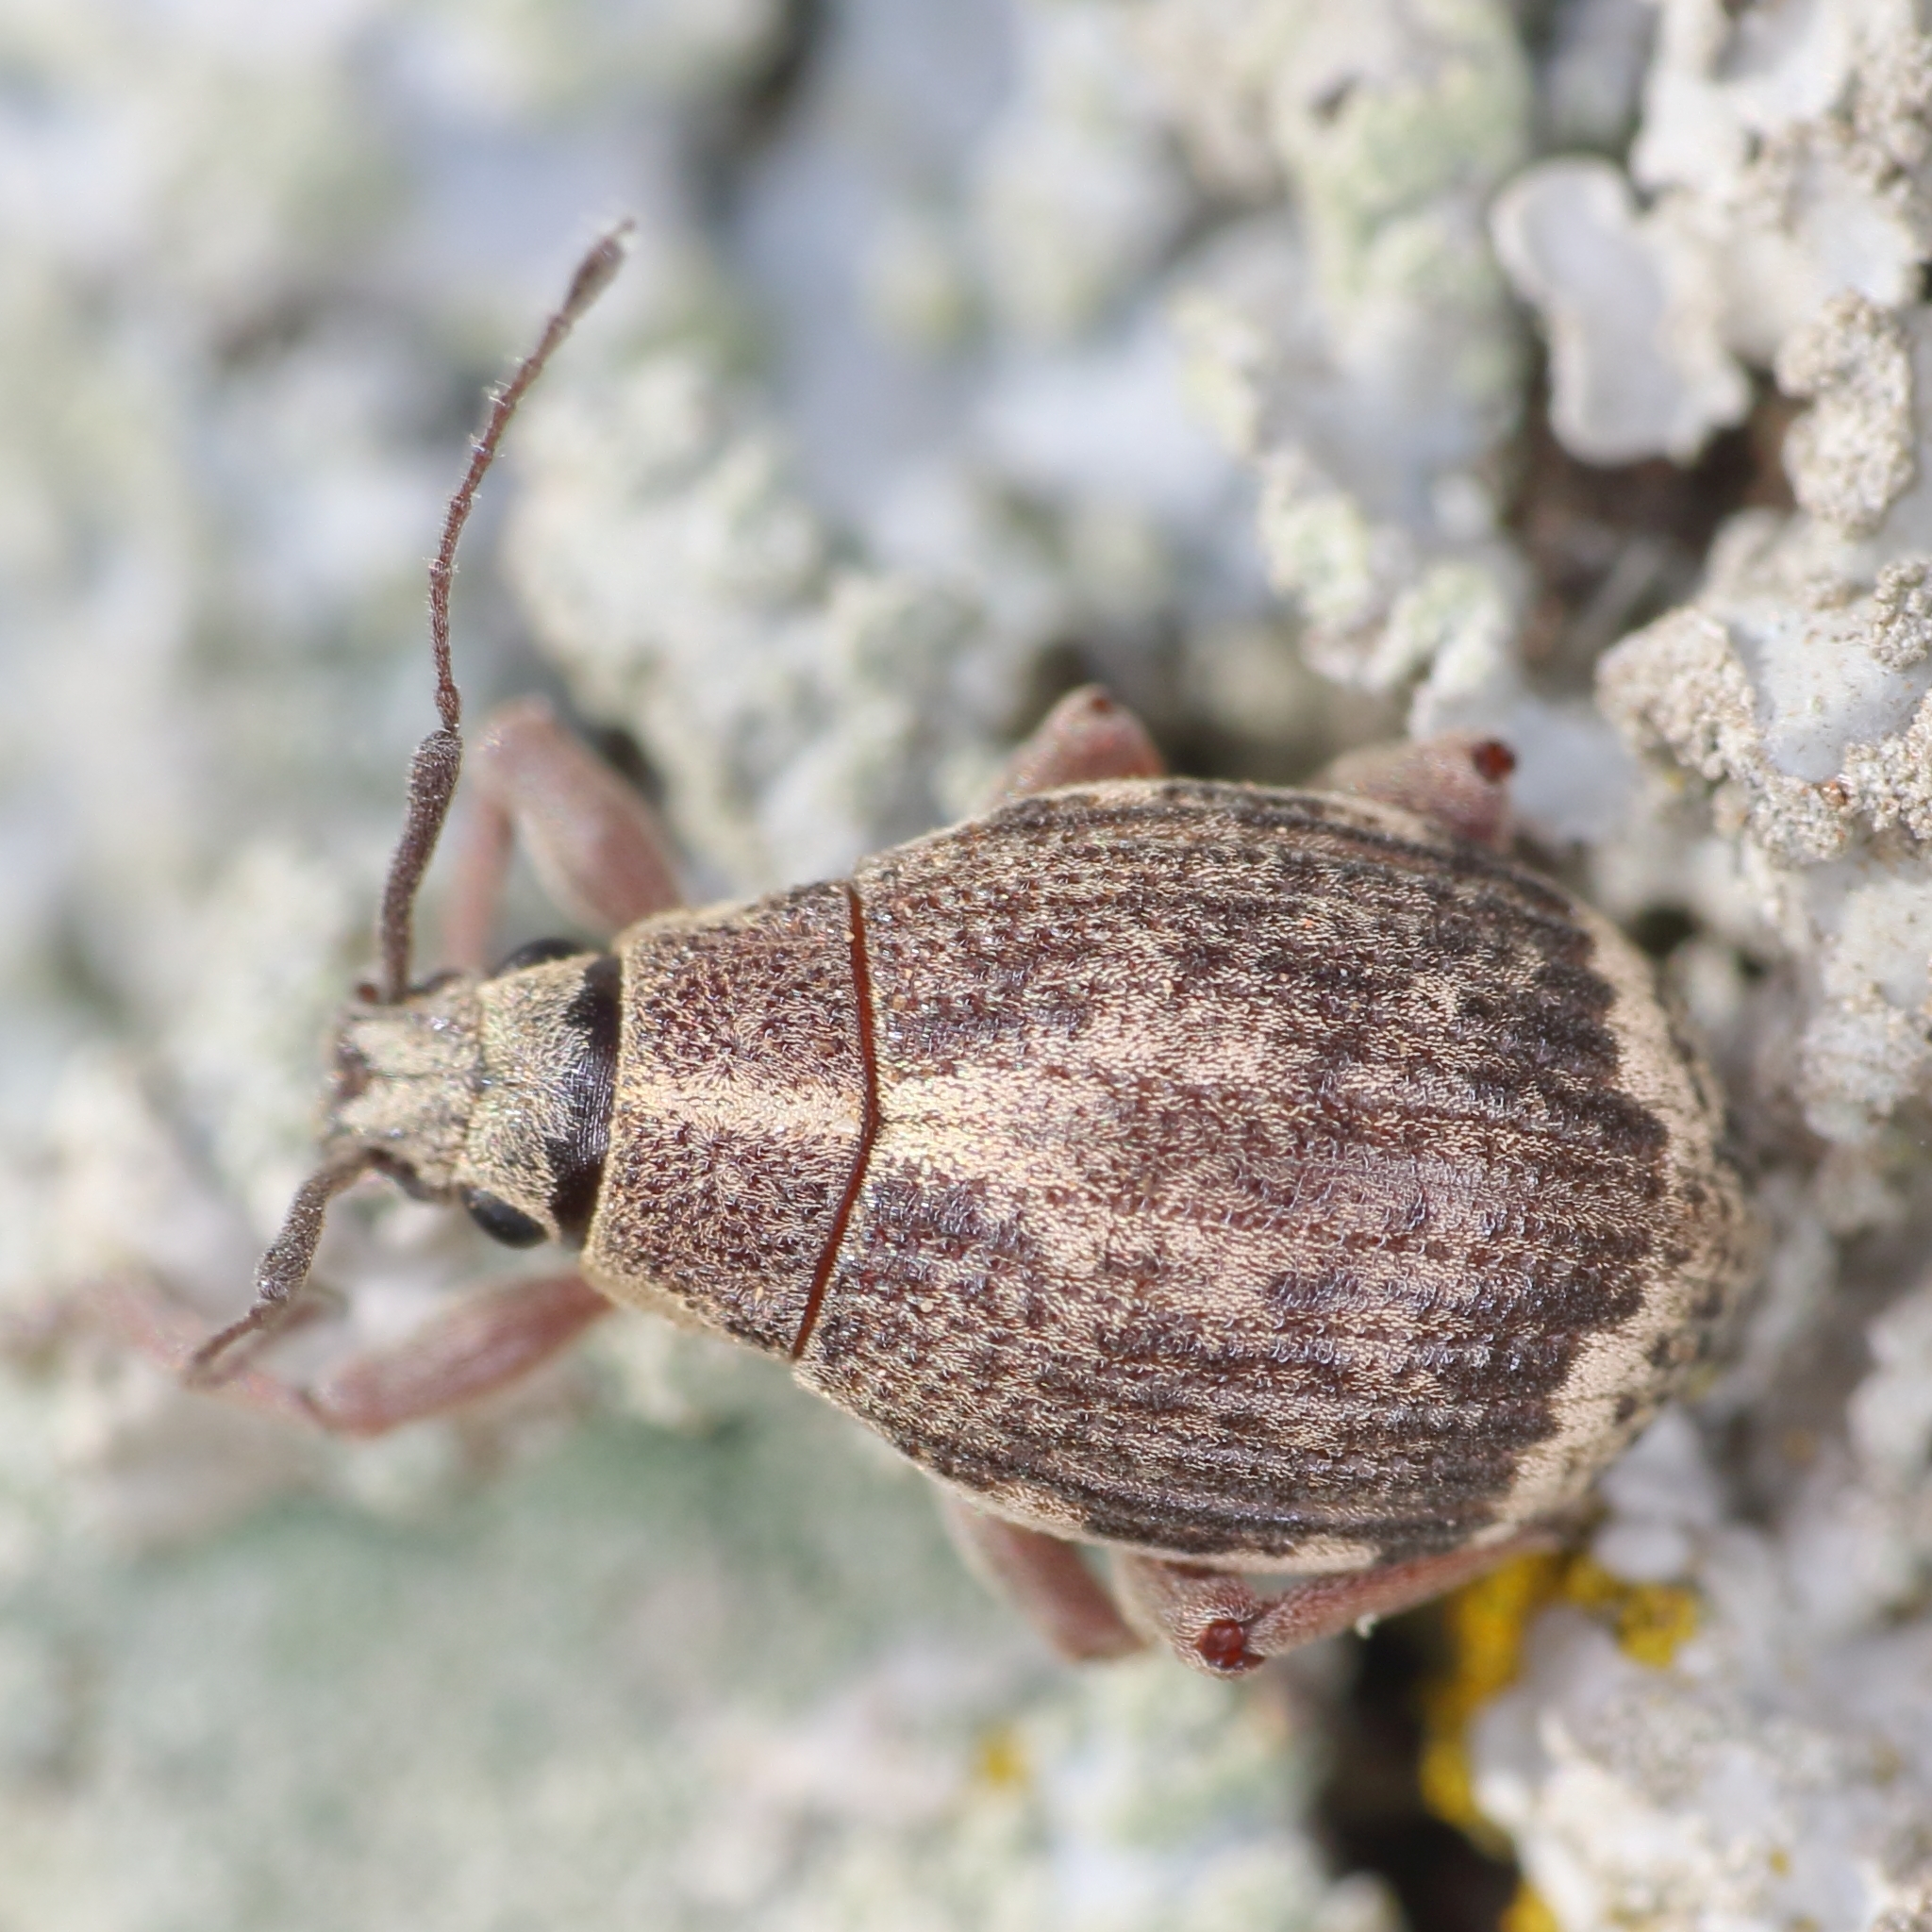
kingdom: Animalia
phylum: Arthropoda
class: Insecta
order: Coleoptera
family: Curculionidae
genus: Sciobius
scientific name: Sciobius pullus
